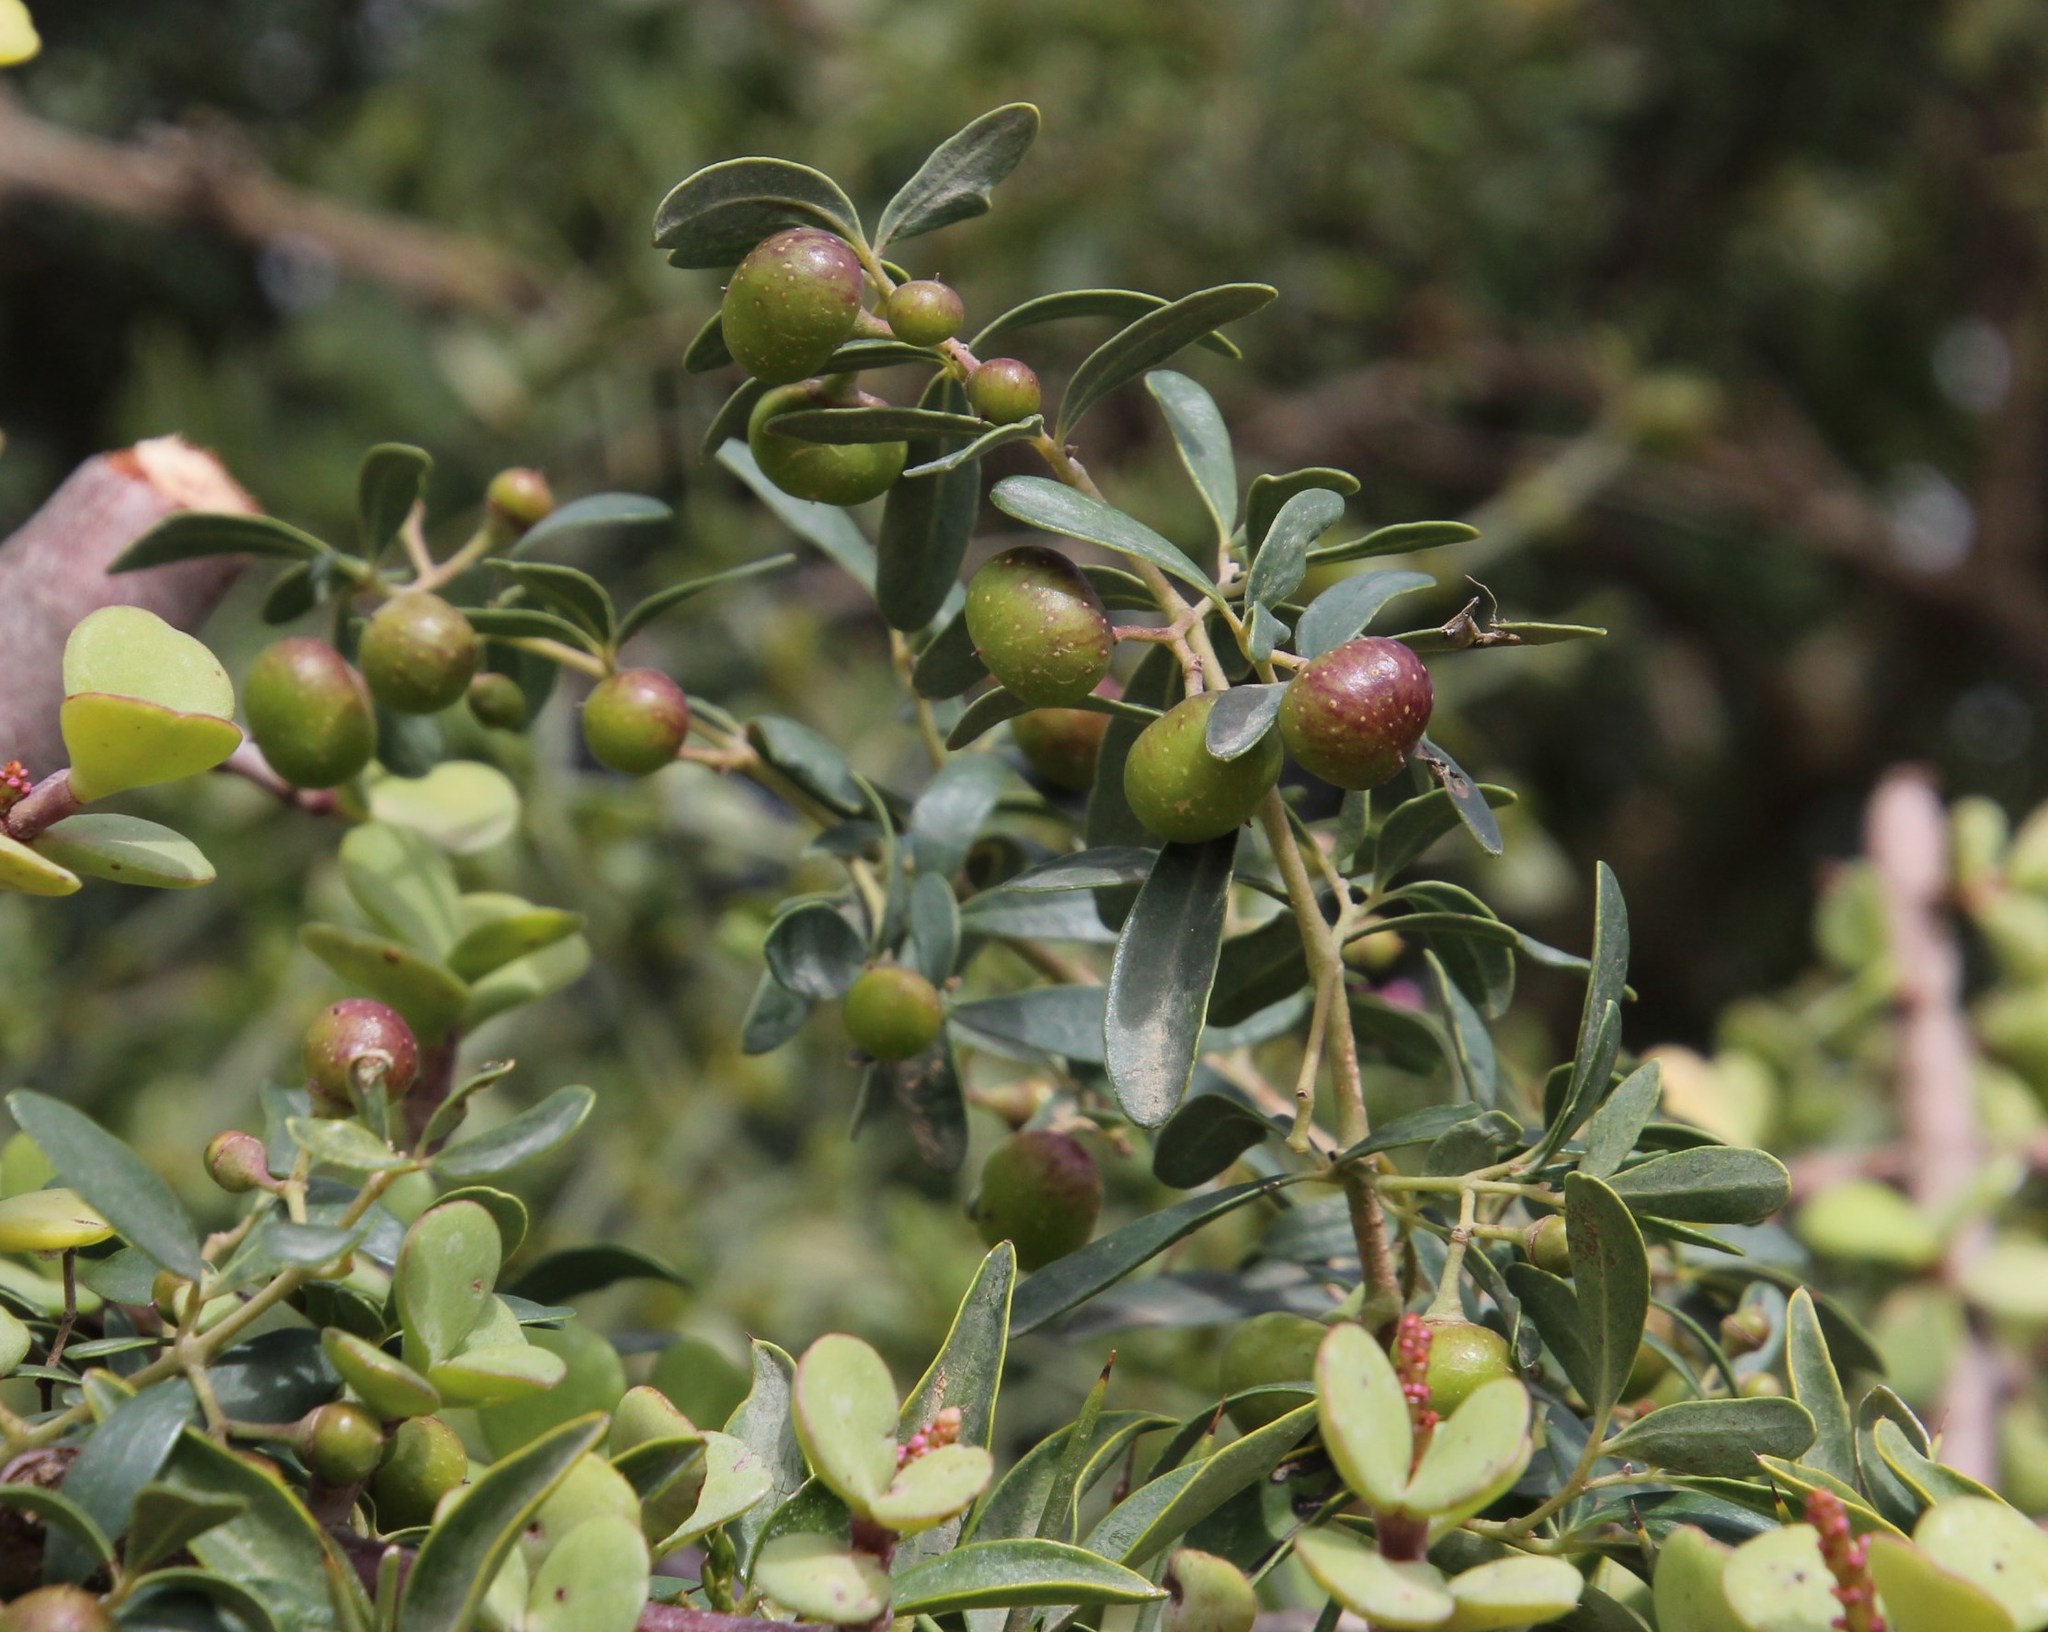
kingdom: Plantae
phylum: Tracheophyta
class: Magnoliopsida
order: Vitales
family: Vitaceae
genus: Rhoicissus
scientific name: Rhoicissus tridentata
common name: Common forest grape
